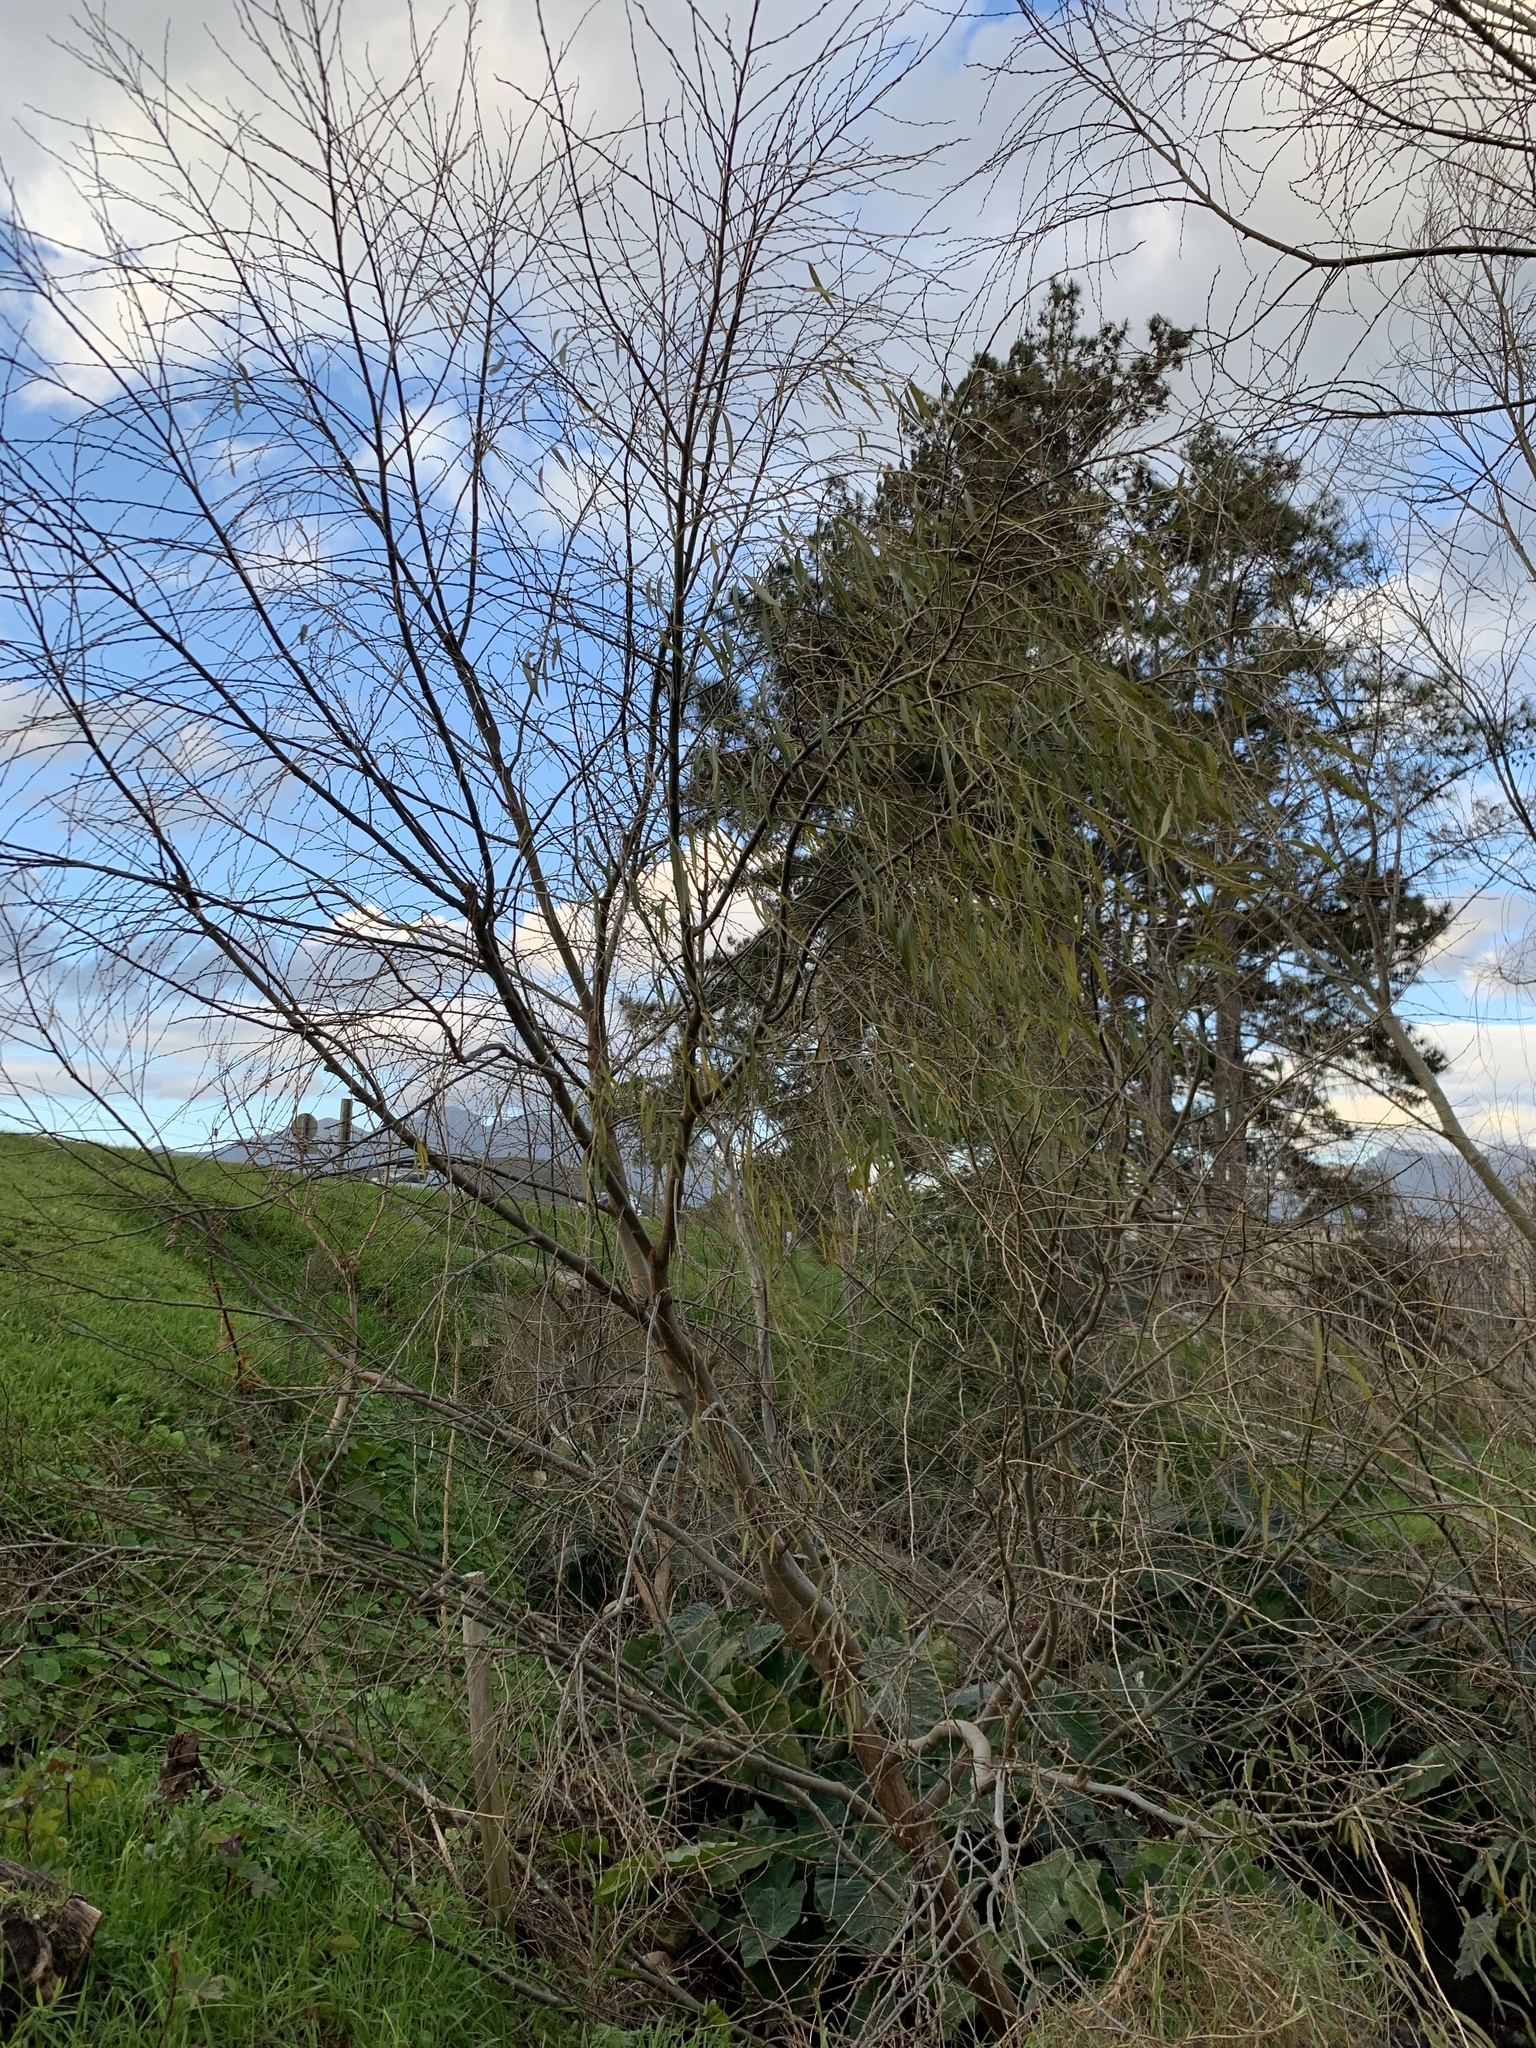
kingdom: Plantae
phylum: Tracheophyta
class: Magnoliopsida
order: Malpighiales
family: Salicaceae
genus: Salix
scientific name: Salix babylonica
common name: Weeping willow
